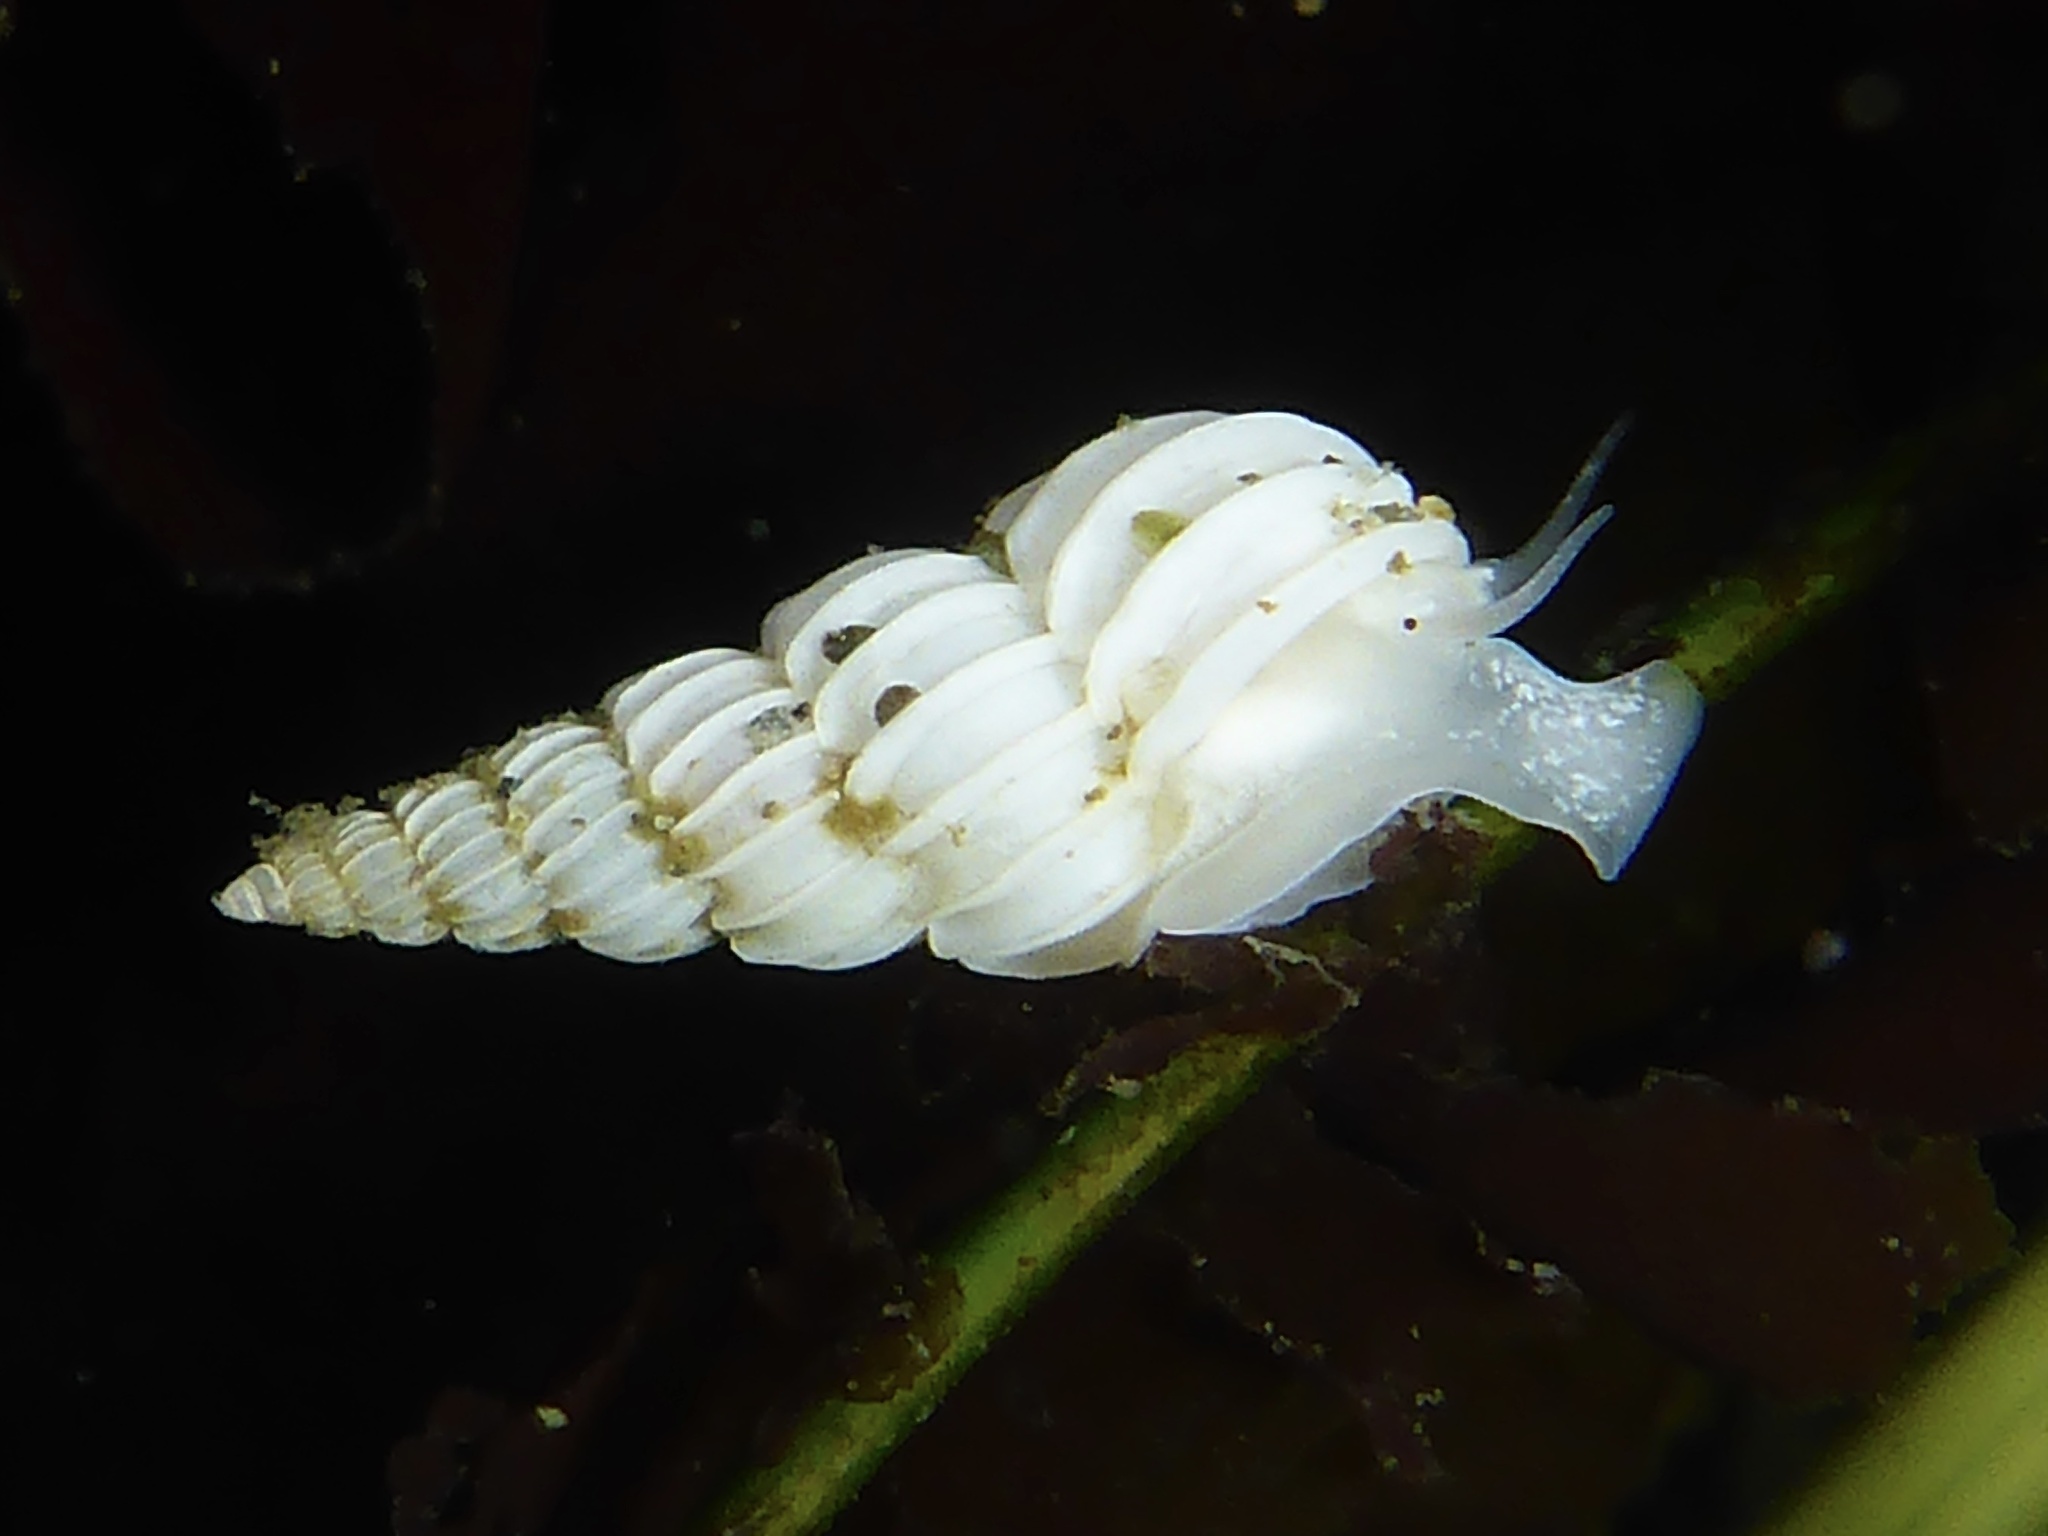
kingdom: Animalia
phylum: Mollusca
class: Gastropoda
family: Epitoniidae
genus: Epitonium
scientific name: Epitonium tinctum
